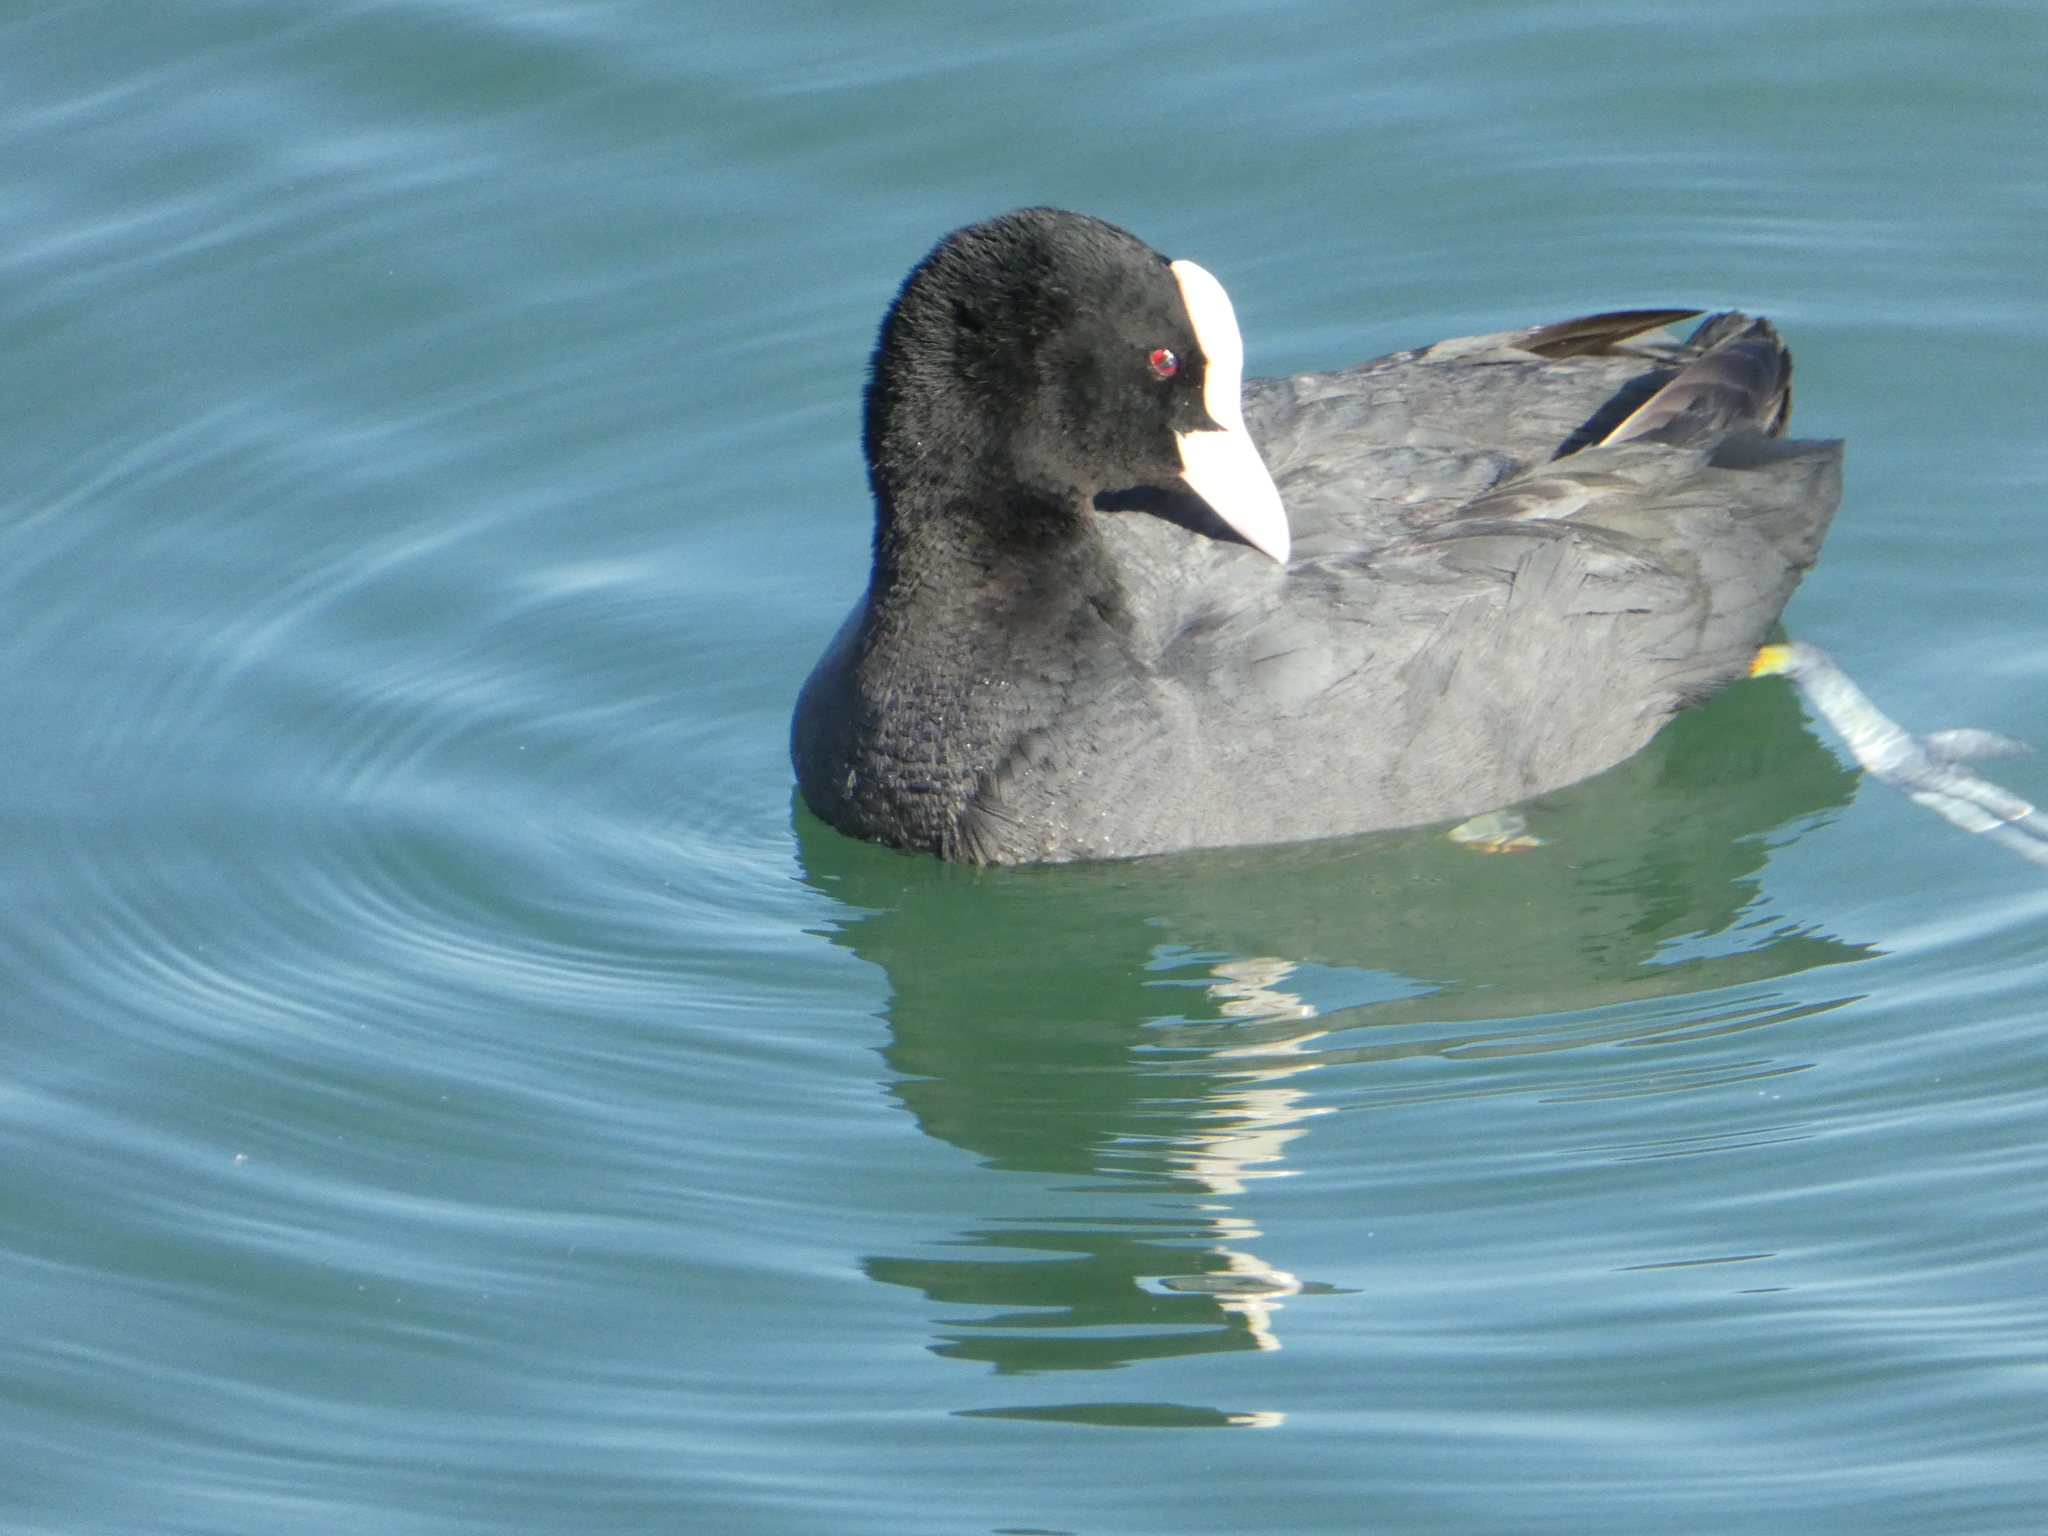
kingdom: Animalia
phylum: Chordata
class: Aves
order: Gruiformes
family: Rallidae
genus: Fulica
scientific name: Fulica atra
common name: Eurasian coot
